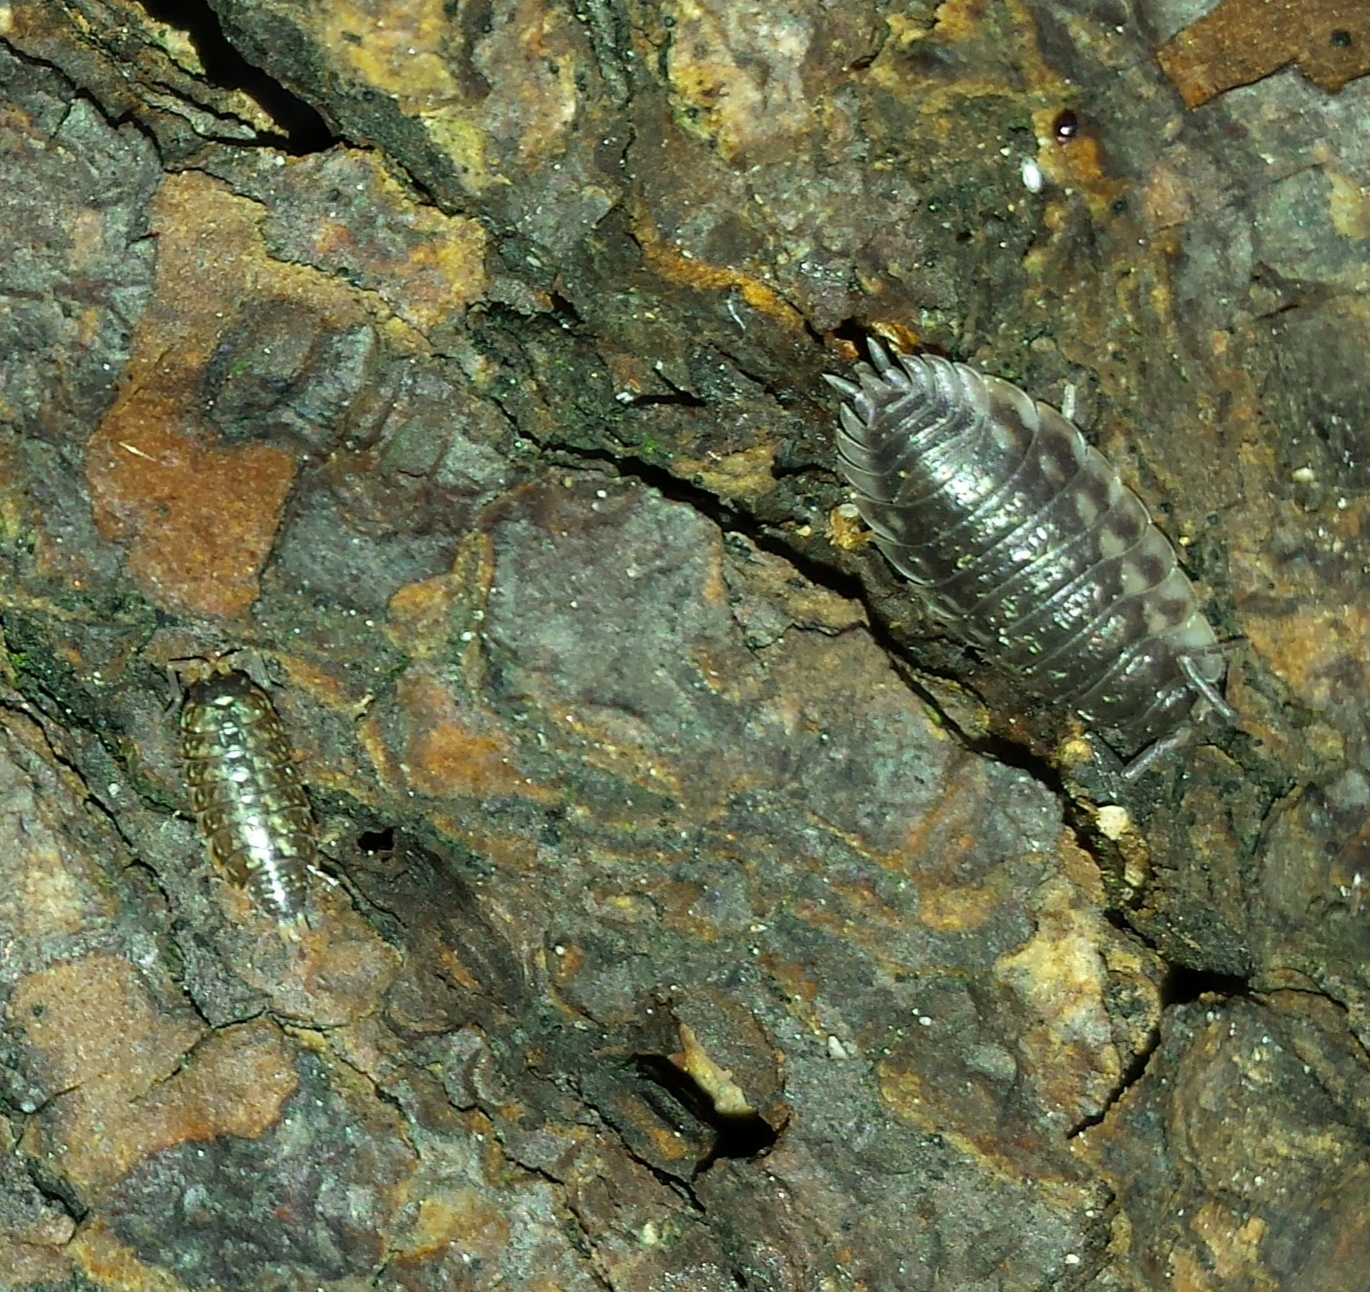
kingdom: Animalia
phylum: Arthropoda
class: Malacostraca
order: Isopoda
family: Philosciidae
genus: Philoscia
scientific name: Philoscia muscorum
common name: Common striped woodlouse
